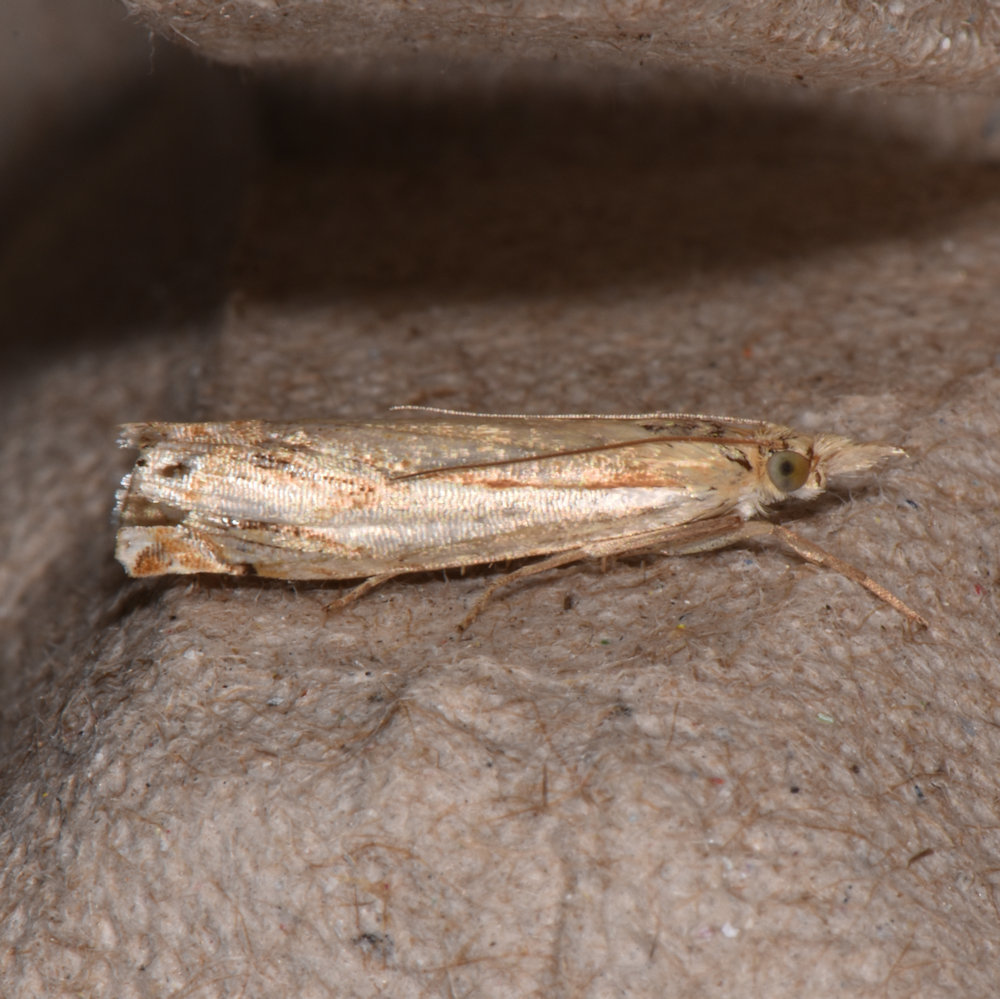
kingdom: Animalia
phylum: Arthropoda
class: Insecta
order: Lepidoptera
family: Crambidae
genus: Crambus
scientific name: Crambus agitatellus
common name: Double-banded grass-veneer
